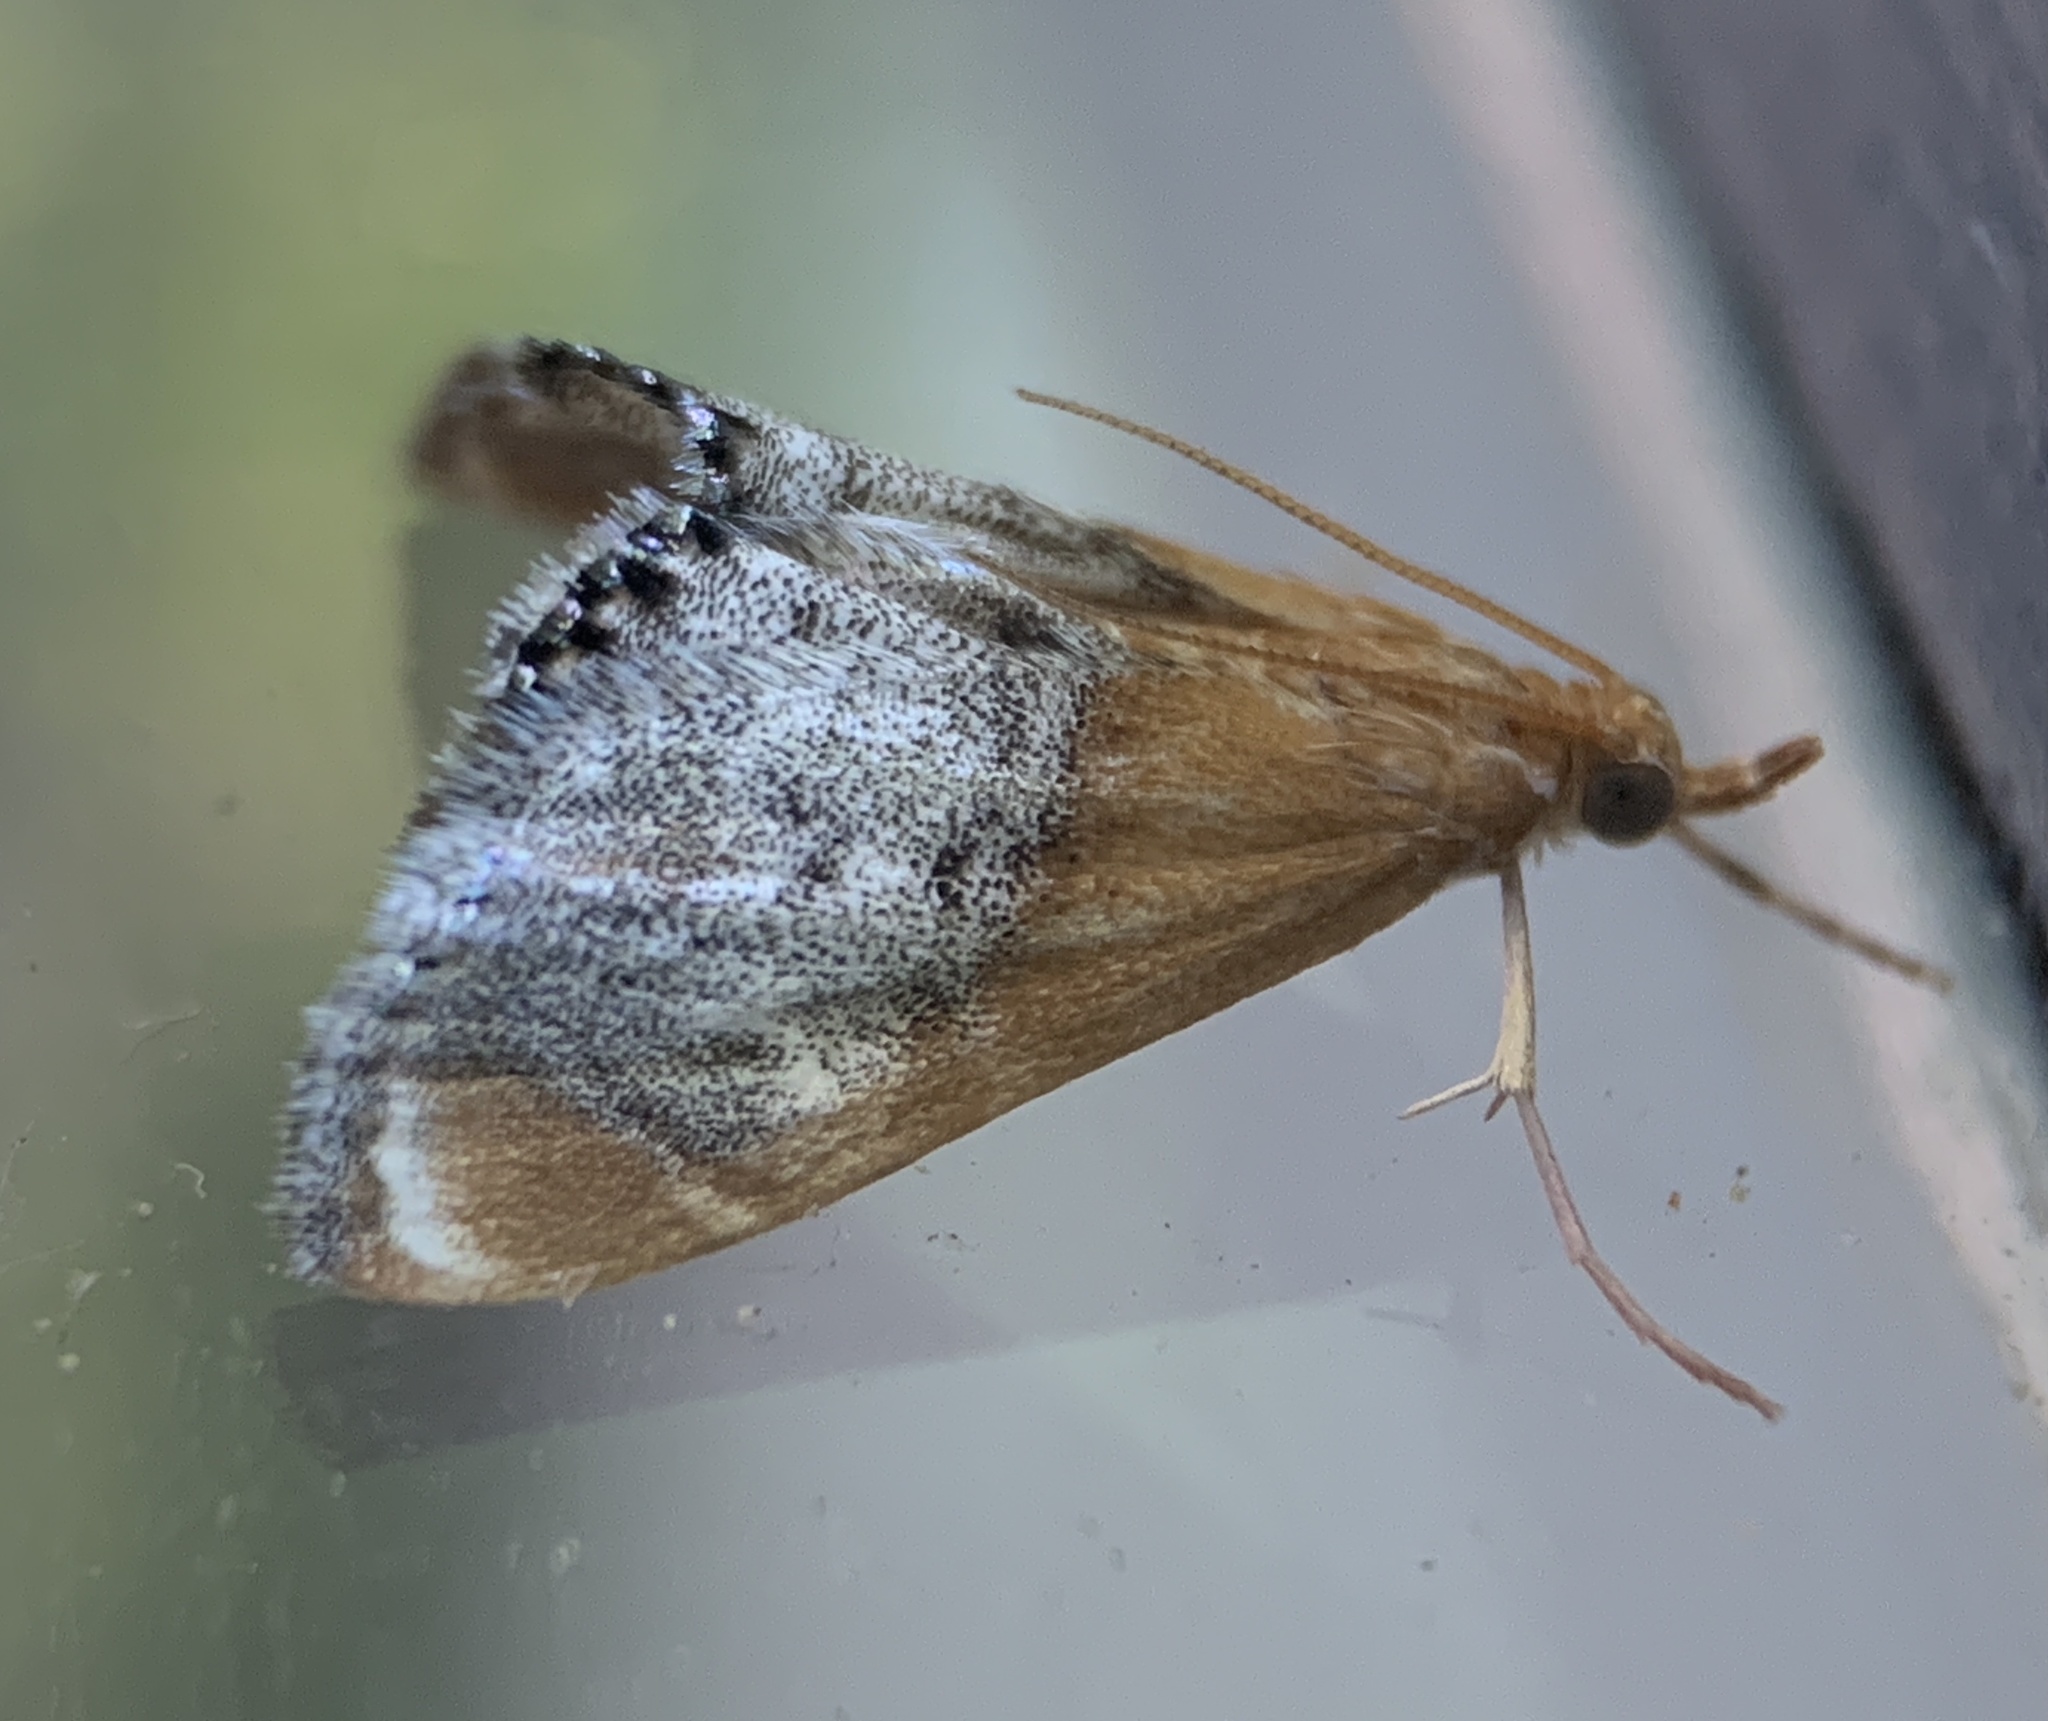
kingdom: Animalia
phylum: Arthropoda
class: Insecta
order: Lepidoptera
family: Crambidae
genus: Chalcoela
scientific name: Chalcoela iphitalis
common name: Sooty-winged chalcoela moth
